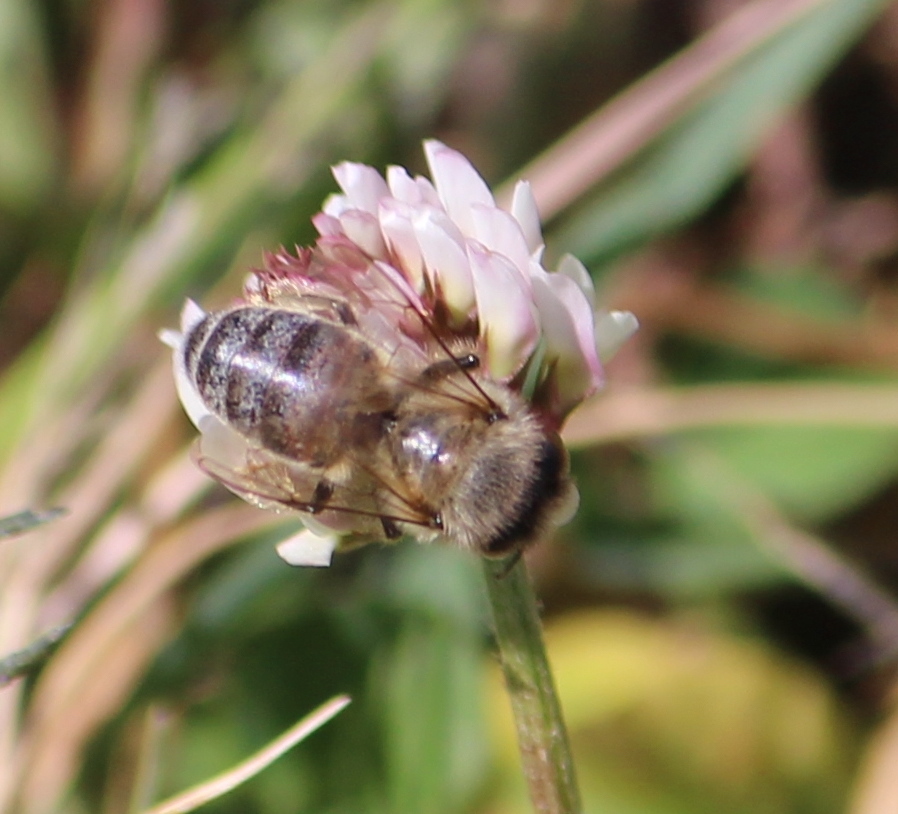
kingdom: Animalia
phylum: Arthropoda
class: Insecta
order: Hymenoptera
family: Apidae
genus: Apis
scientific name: Apis mellifera
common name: Honey bee
